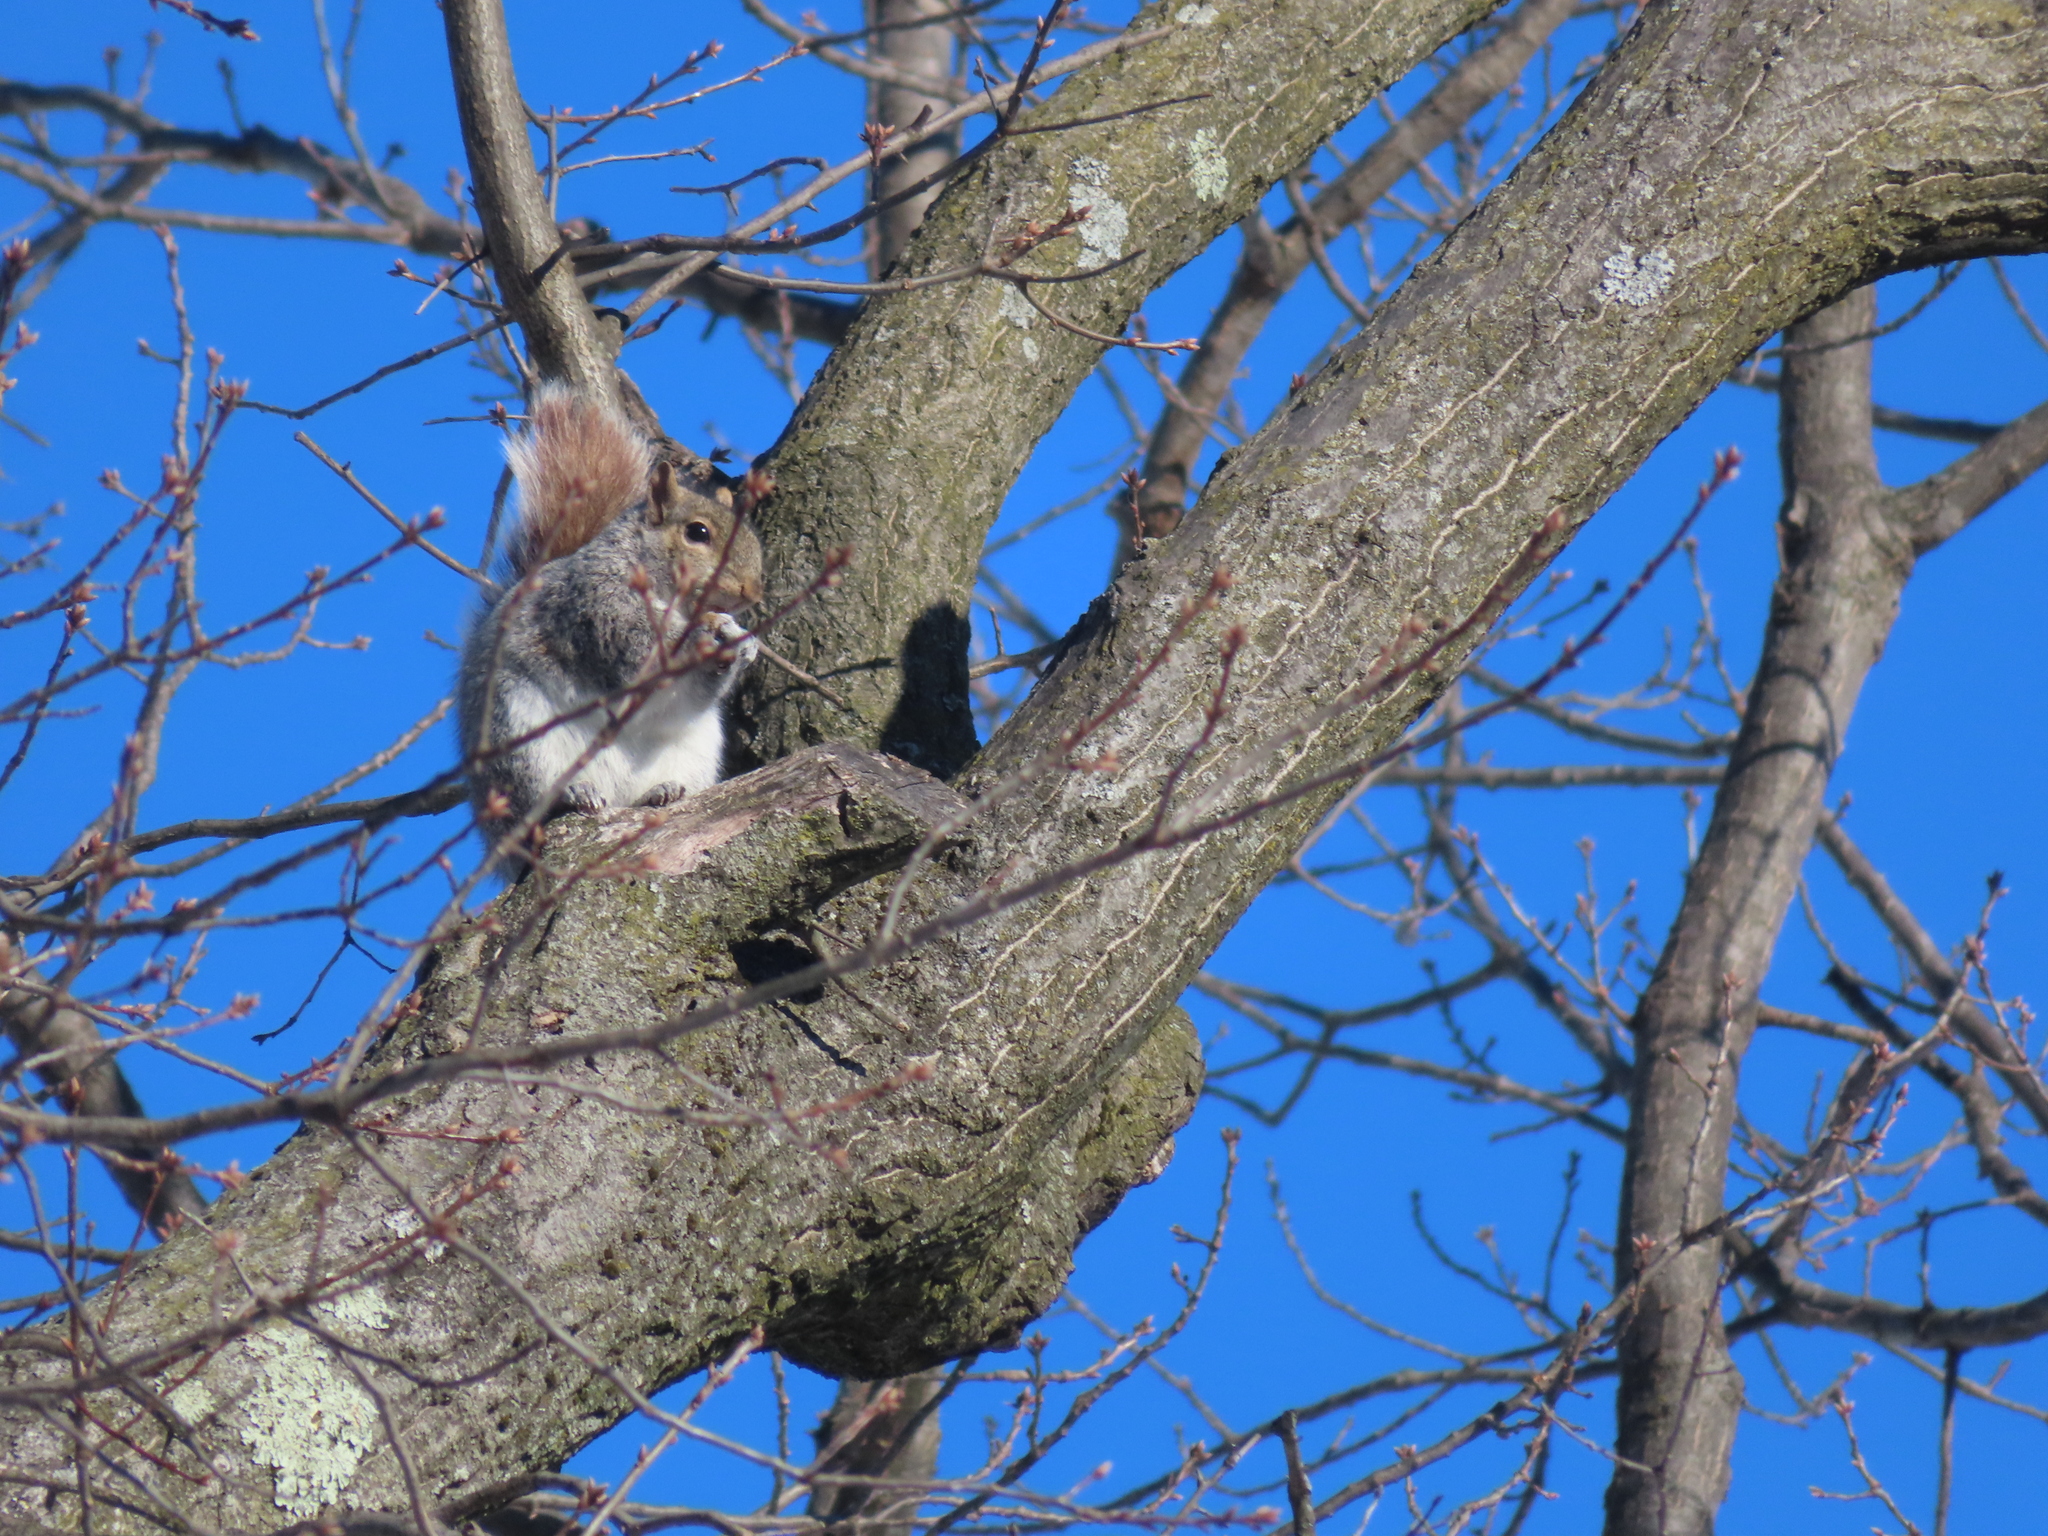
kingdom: Animalia
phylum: Chordata
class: Mammalia
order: Rodentia
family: Sciuridae
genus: Sciurus
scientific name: Sciurus carolinensis
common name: Eastern gray squirrel
